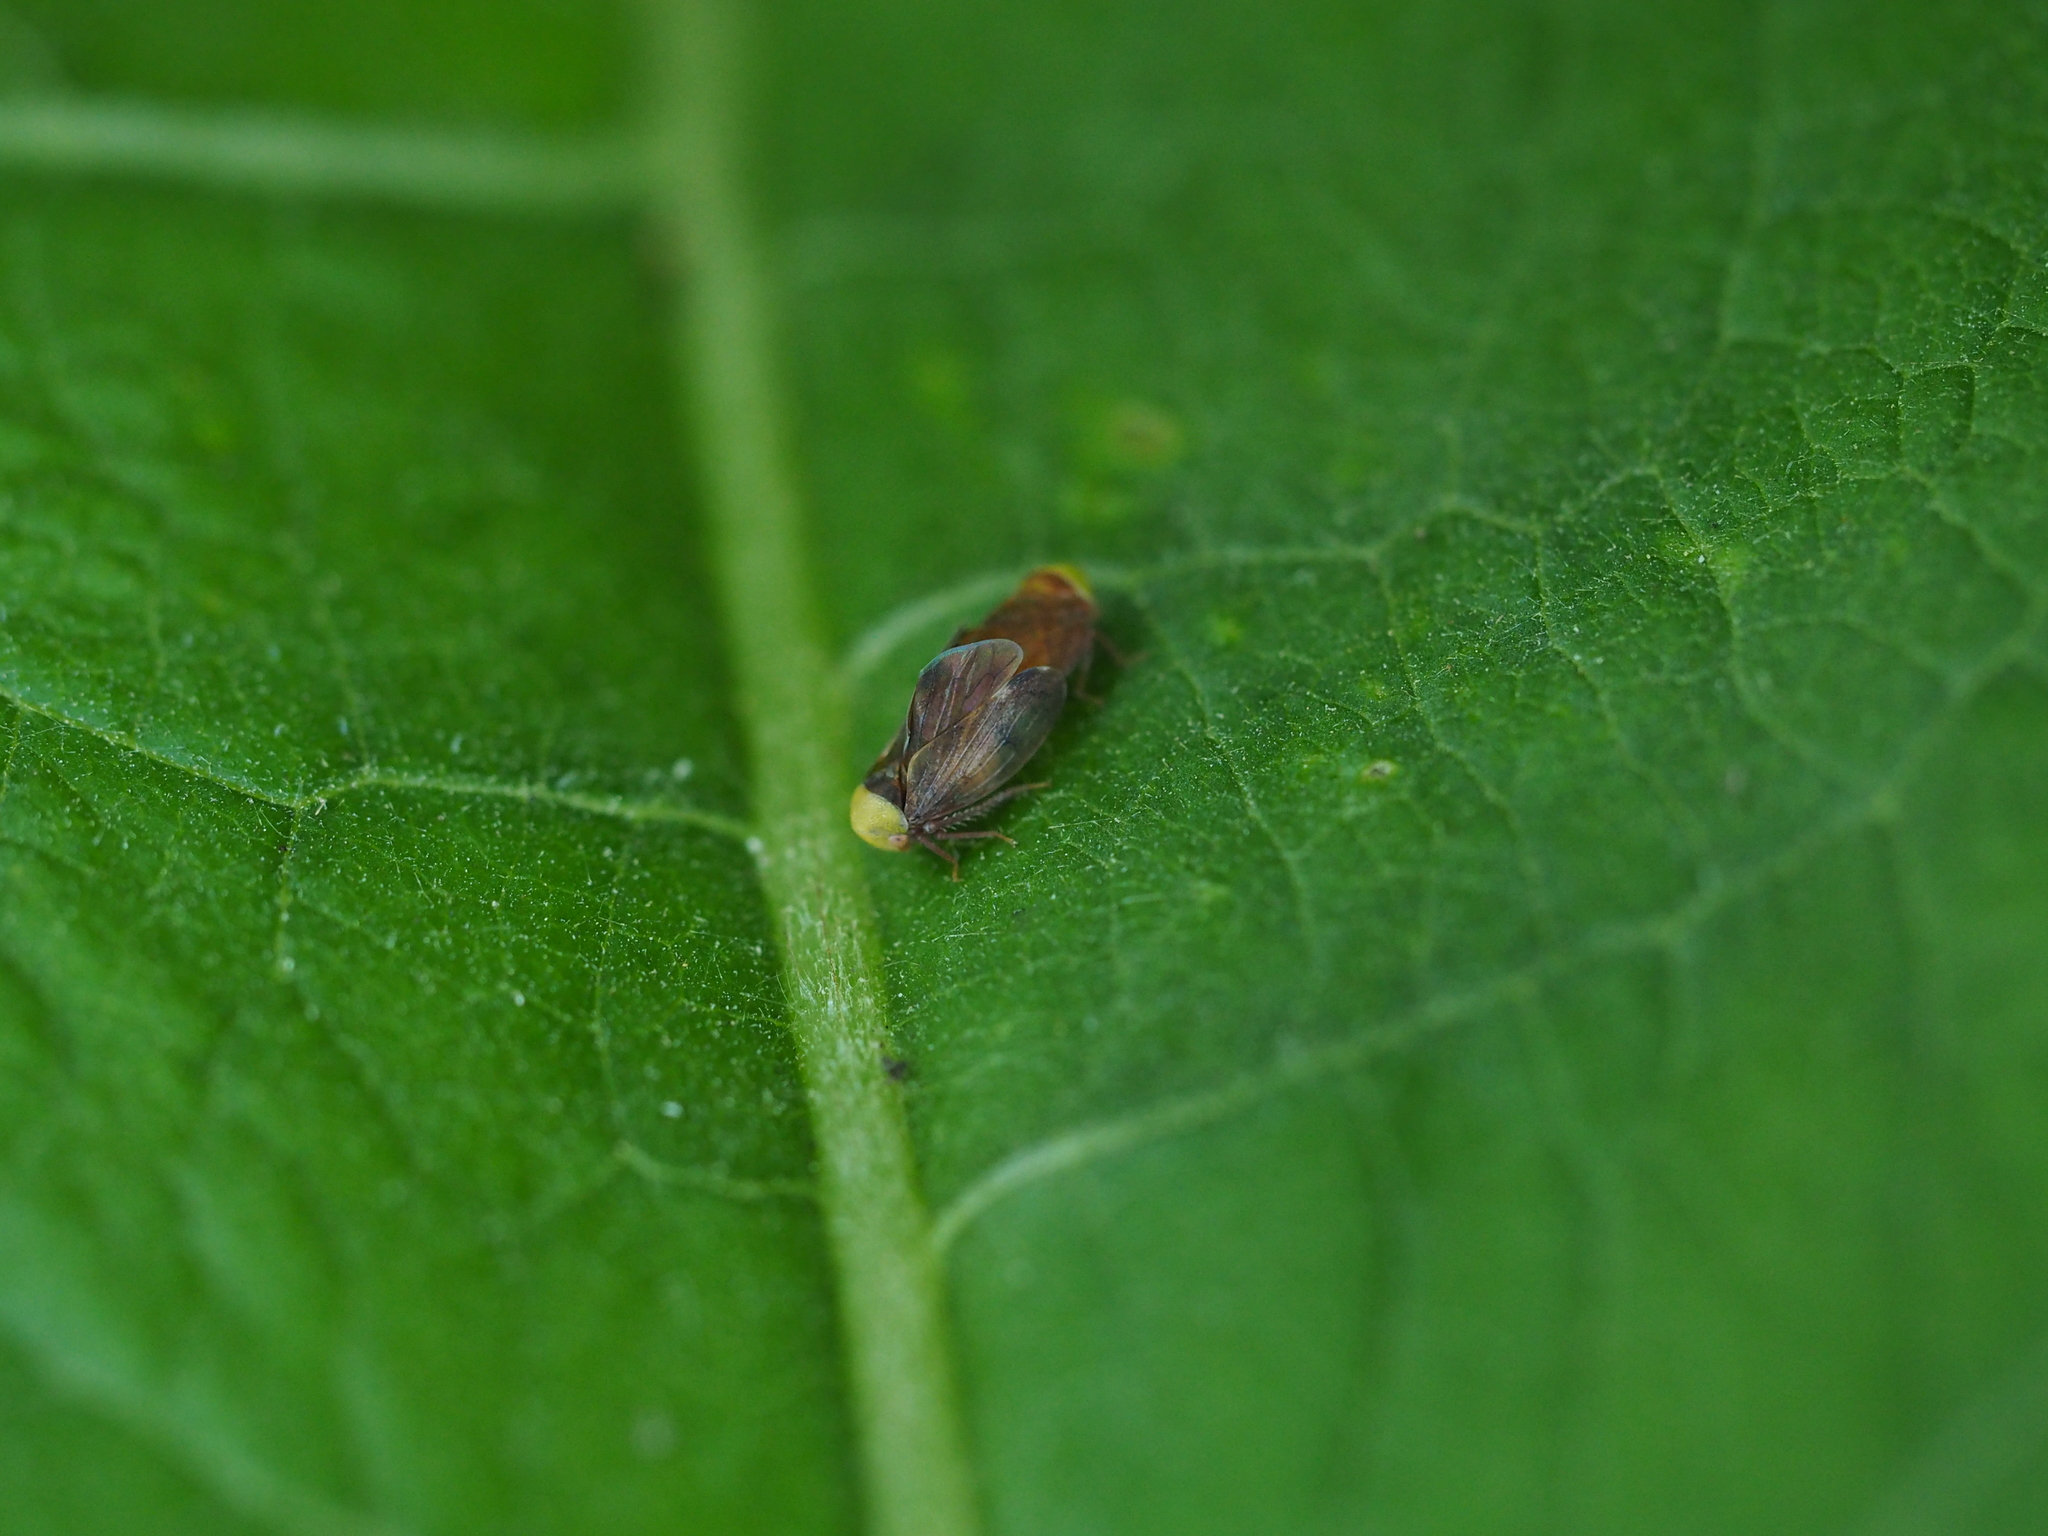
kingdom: Animalia
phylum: Arthropoda
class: Insecta
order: Hemiptera
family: Cicadellidae
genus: Pediopsis
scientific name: Pediopsis tiliae
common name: Leafhopper
